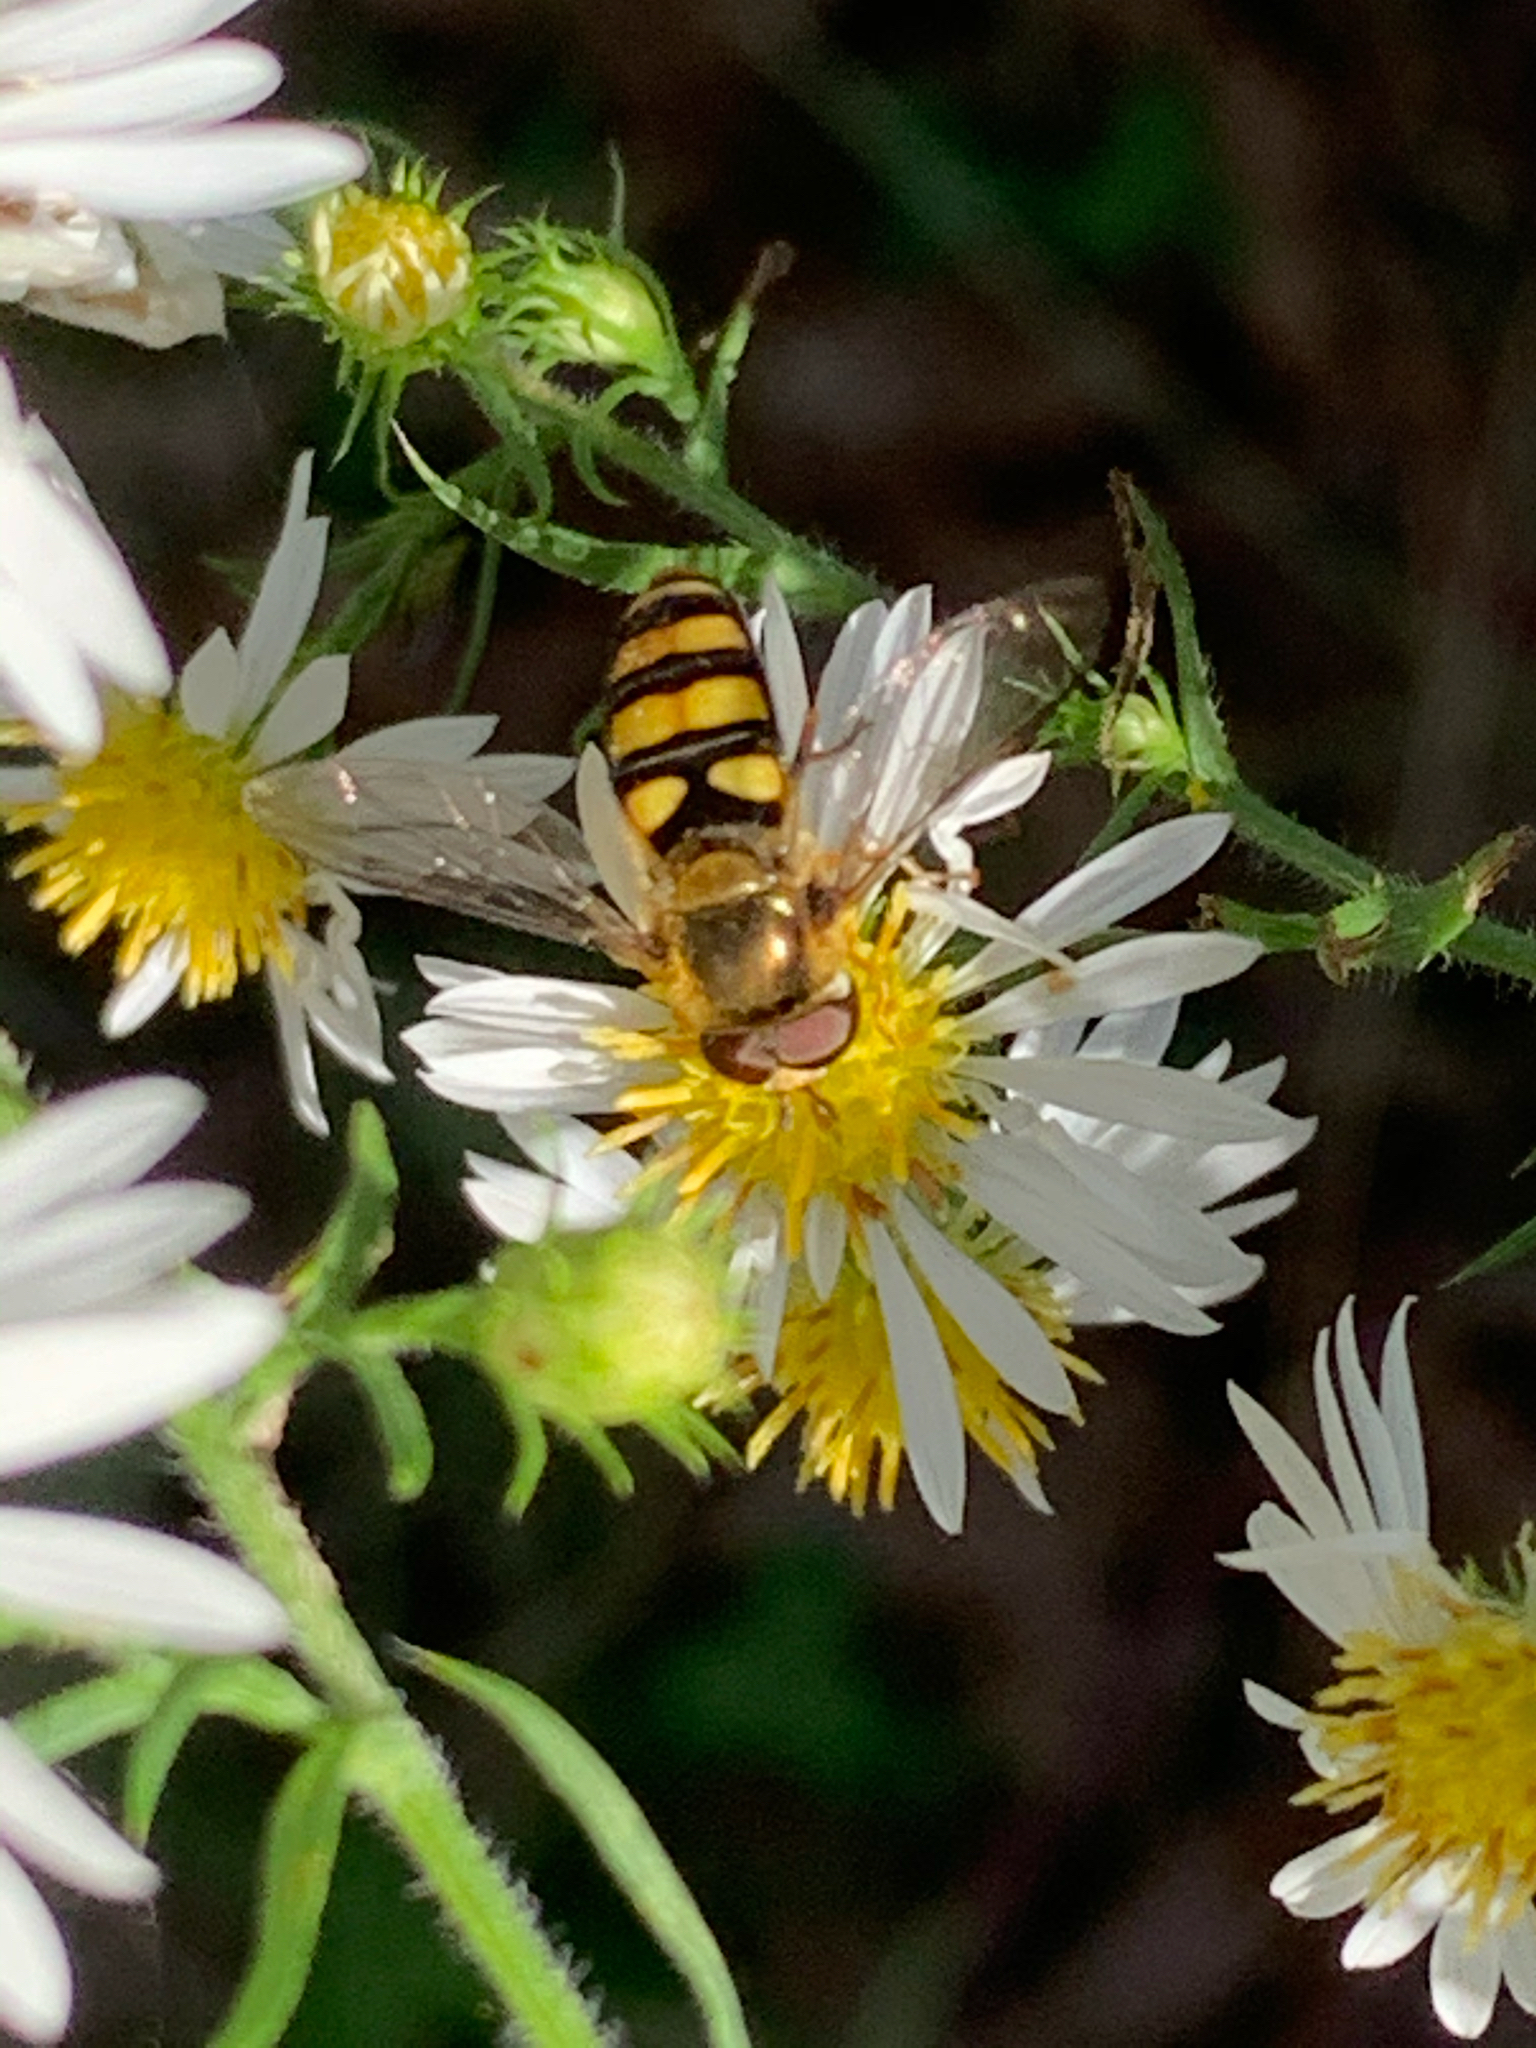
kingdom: Animalia
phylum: Arthropoda
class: Insecta
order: Diptera
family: Syrphidae
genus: Eupeodes
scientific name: Eupeodes
